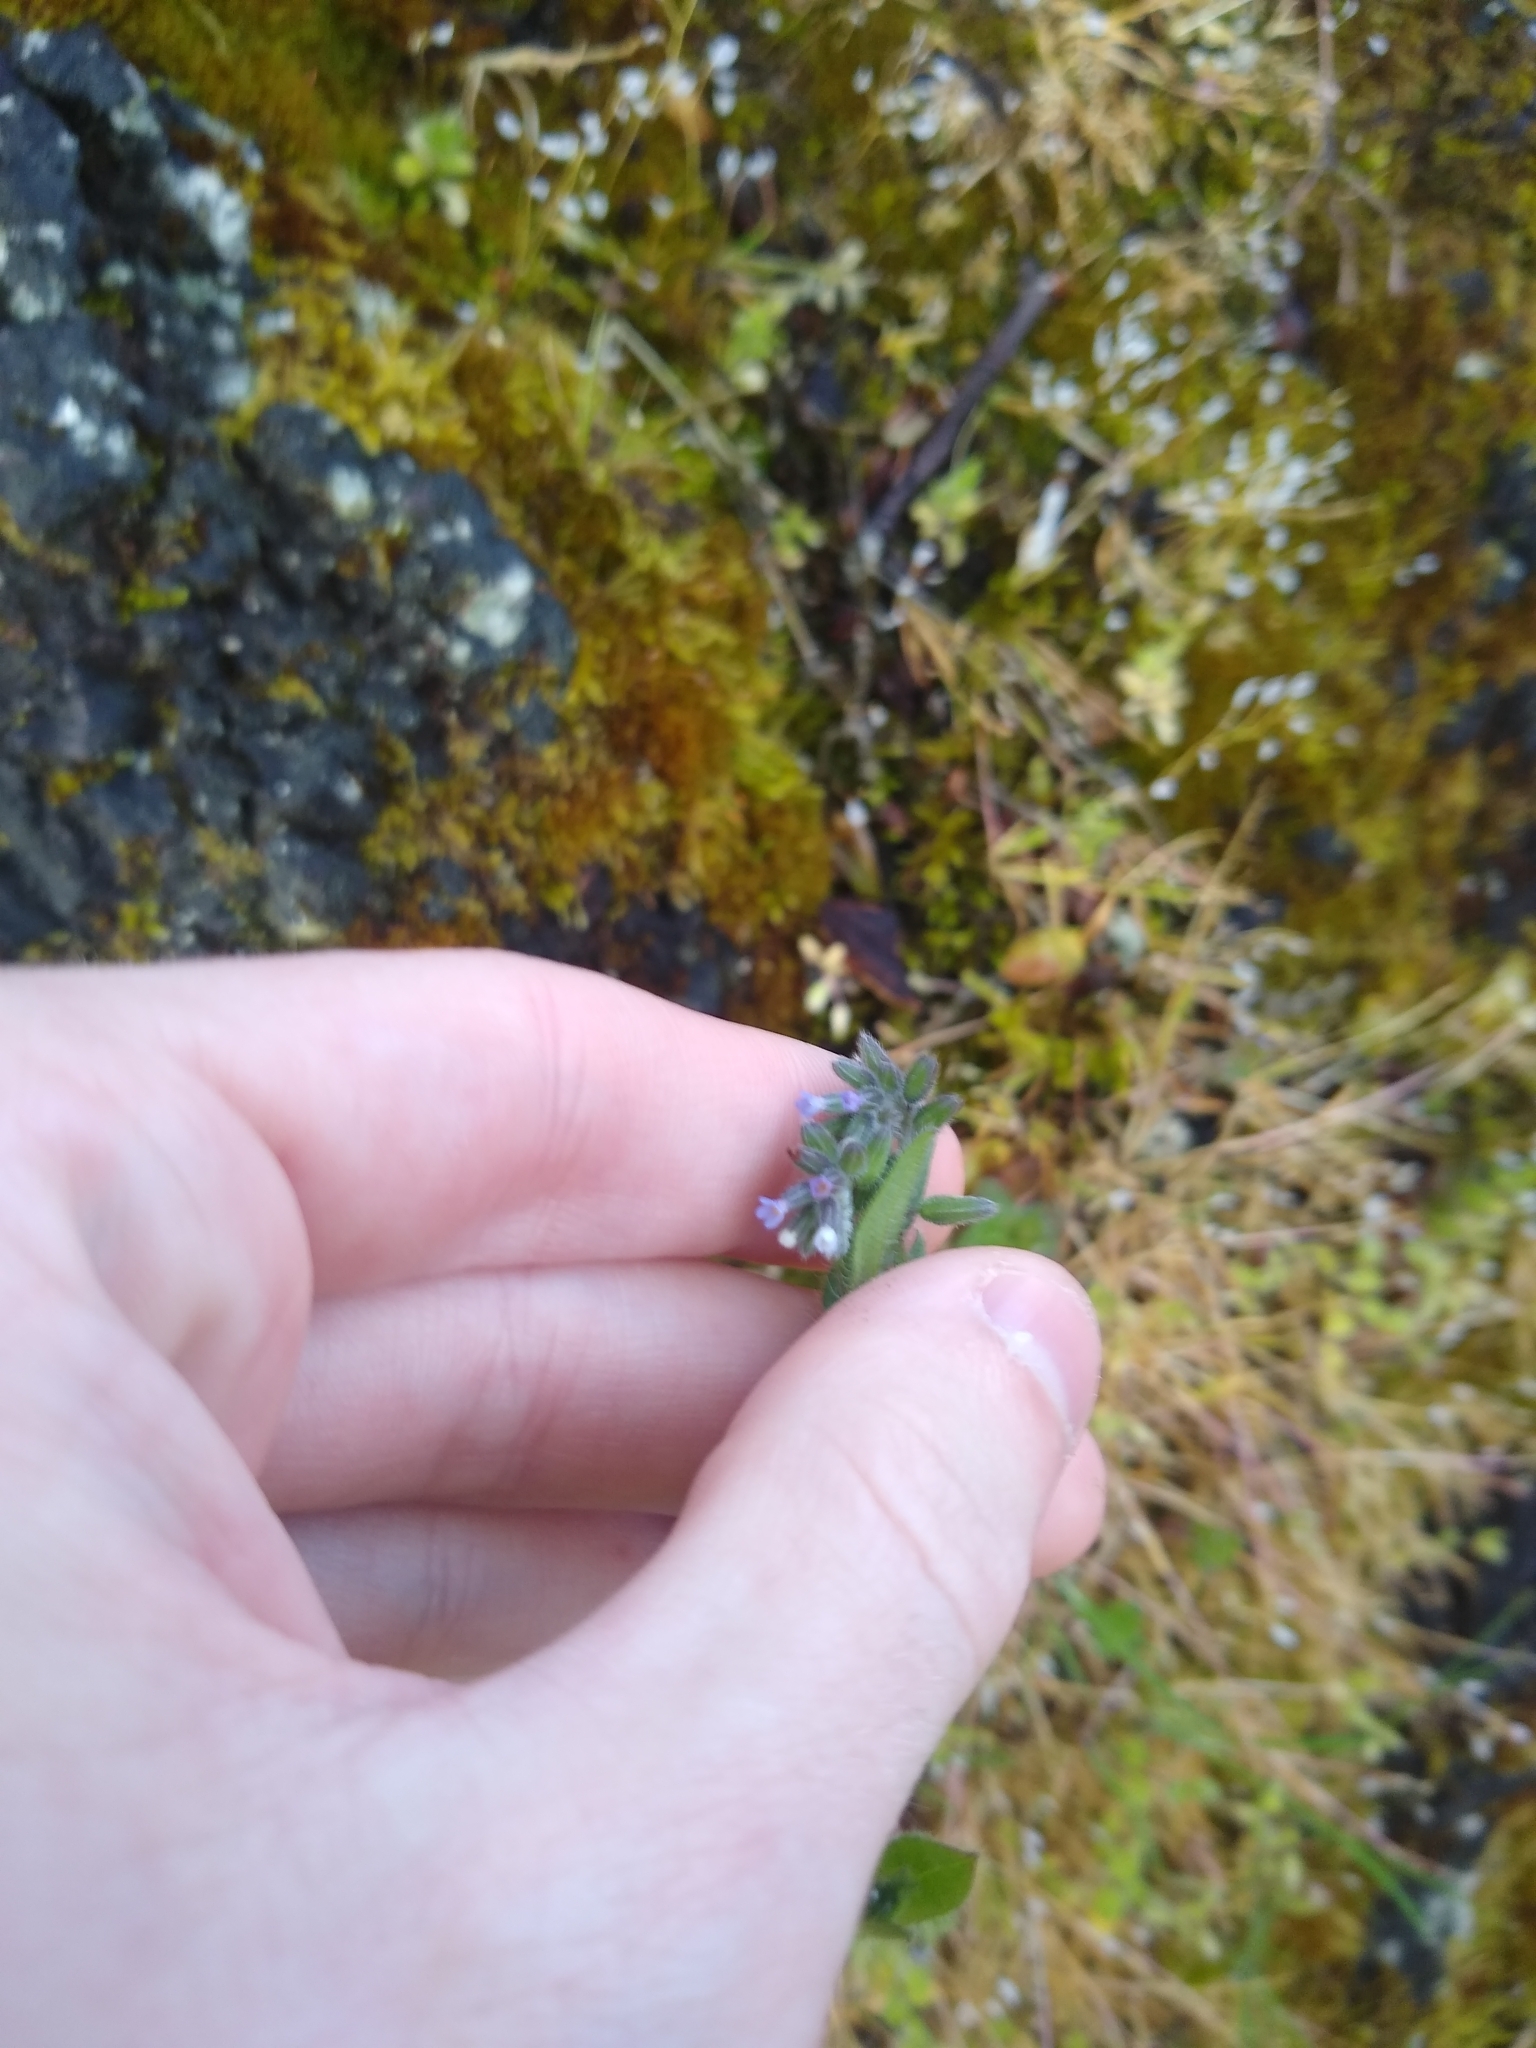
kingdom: Plantae
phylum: Tracheophyta
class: Magnoliopsida
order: Boraginales
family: Boraginaceae
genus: Myosotis
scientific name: Myosotis discolor
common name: Changing forget-me-not
